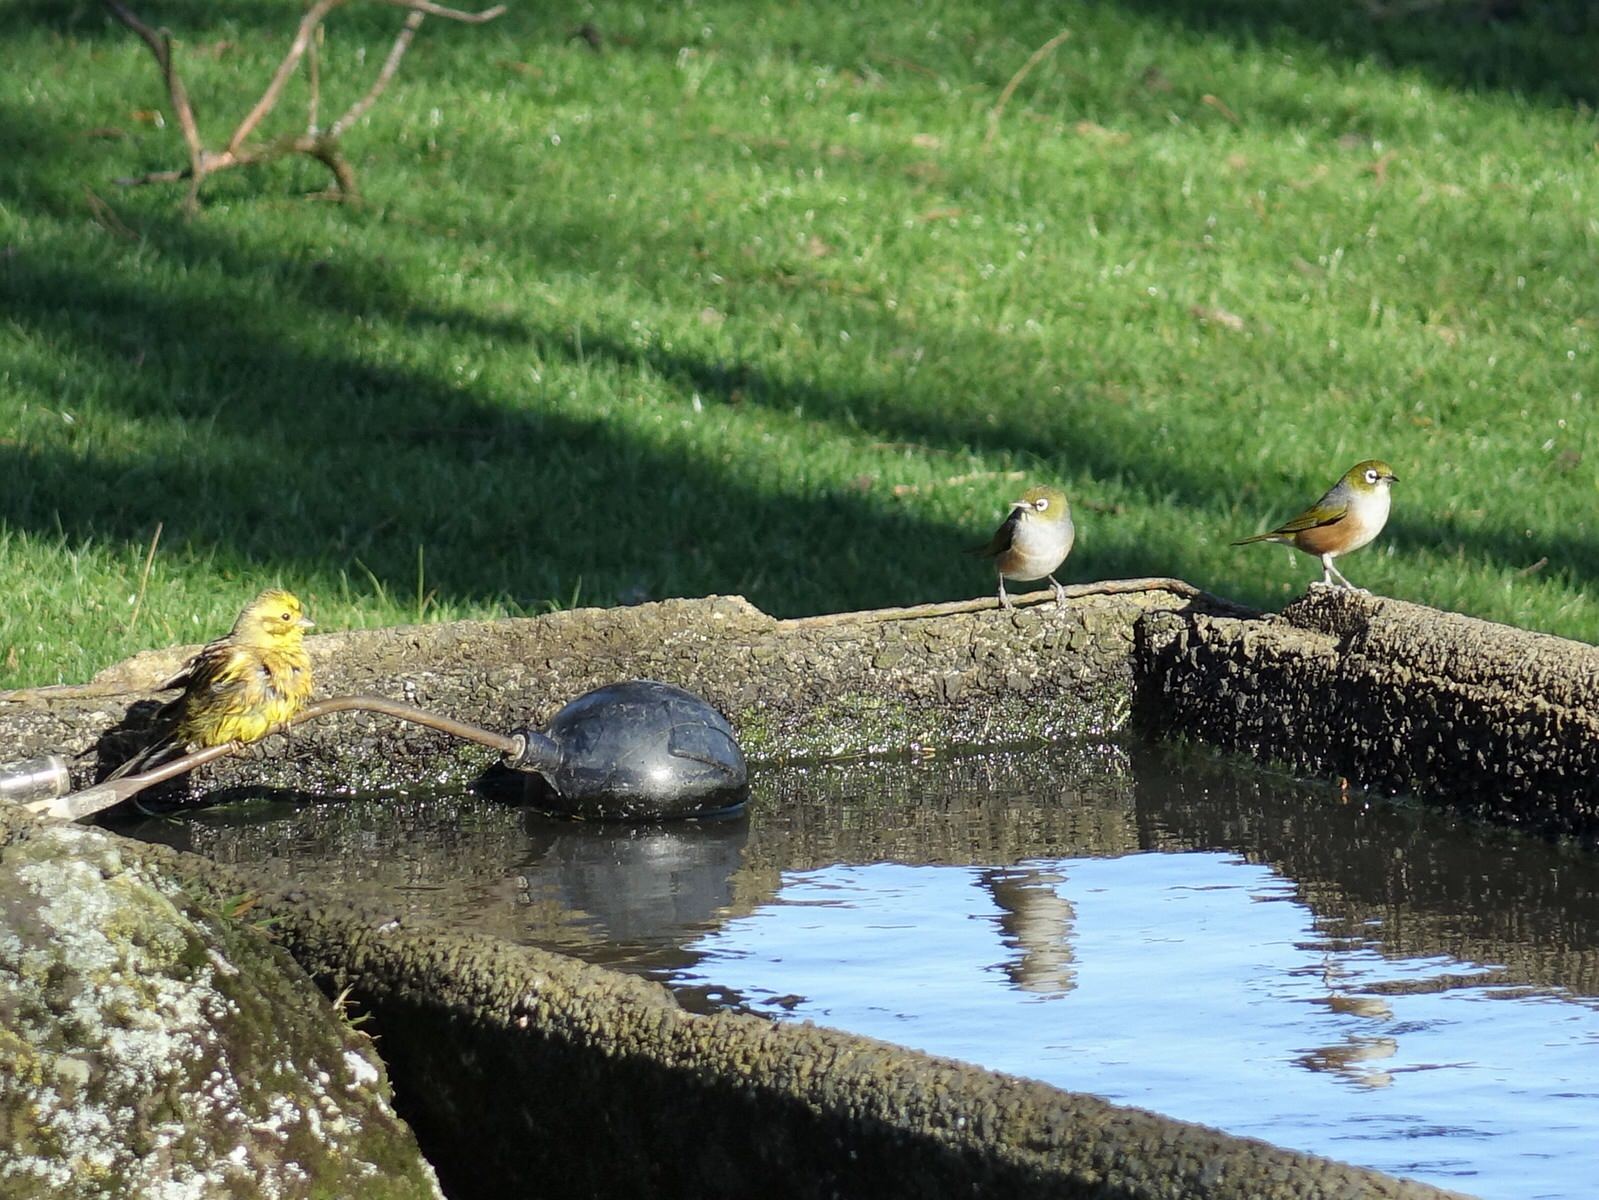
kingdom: Animalia
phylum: Chordata
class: Aves
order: Passeriformes
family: Emberizidae
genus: Emberiza
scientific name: Emberiza citrinella
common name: Yellowhammer
